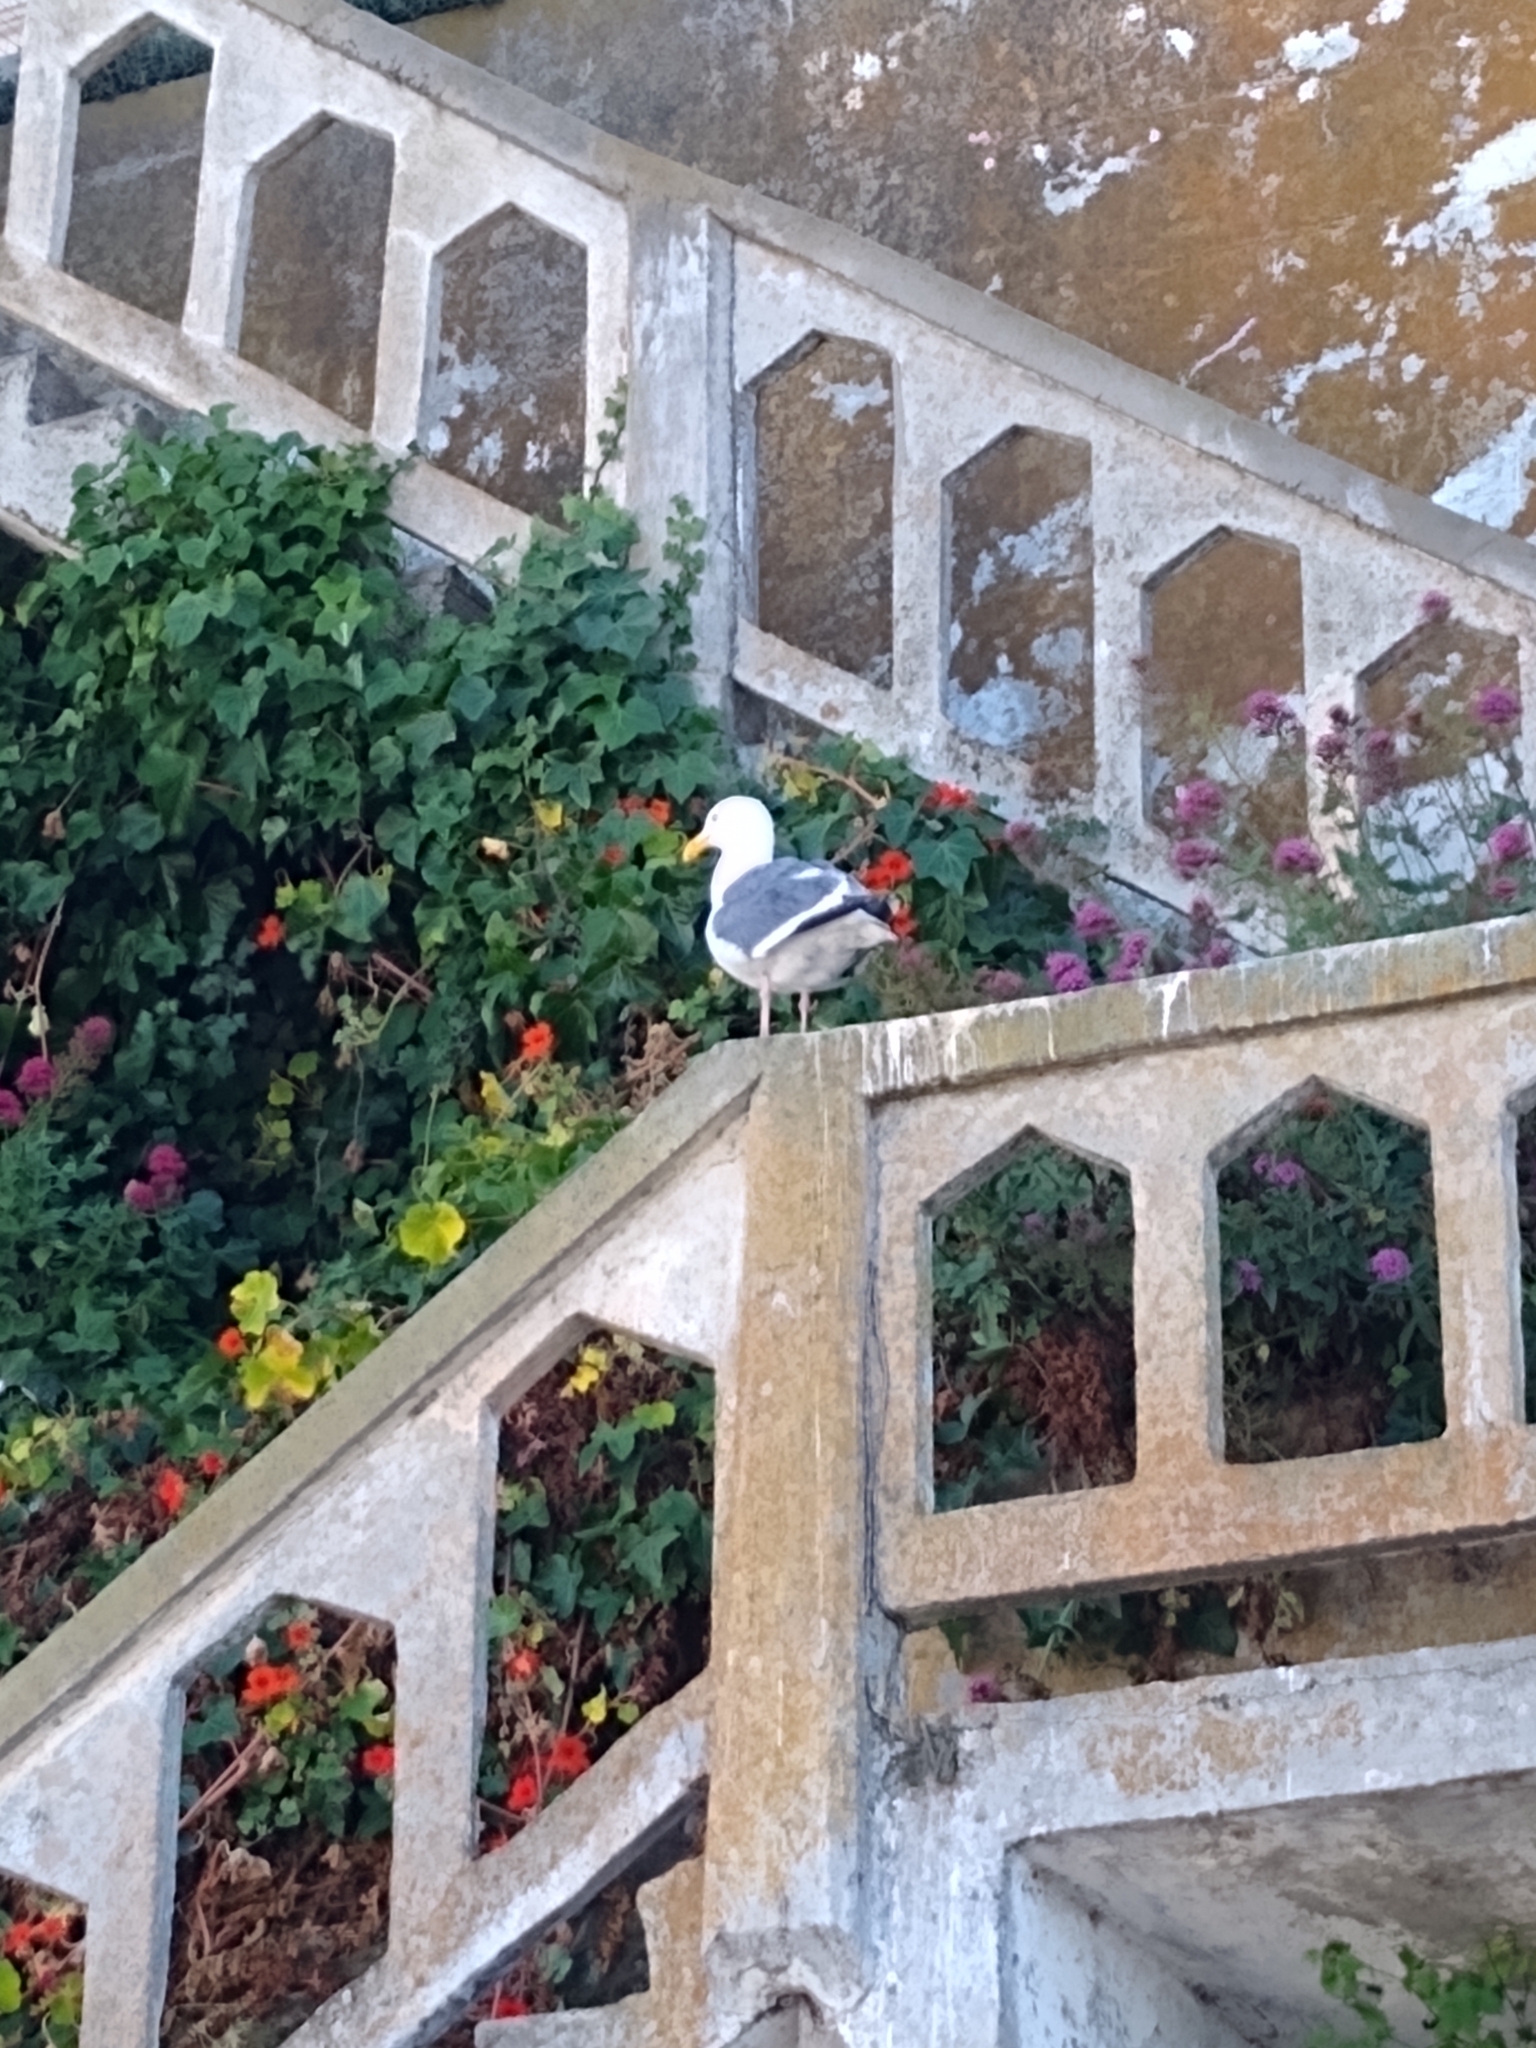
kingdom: Animalia
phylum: Chordata
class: Aves
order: Charadriiformes
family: Laridae
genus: Larus
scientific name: Larus occidentalis
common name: Western gull
